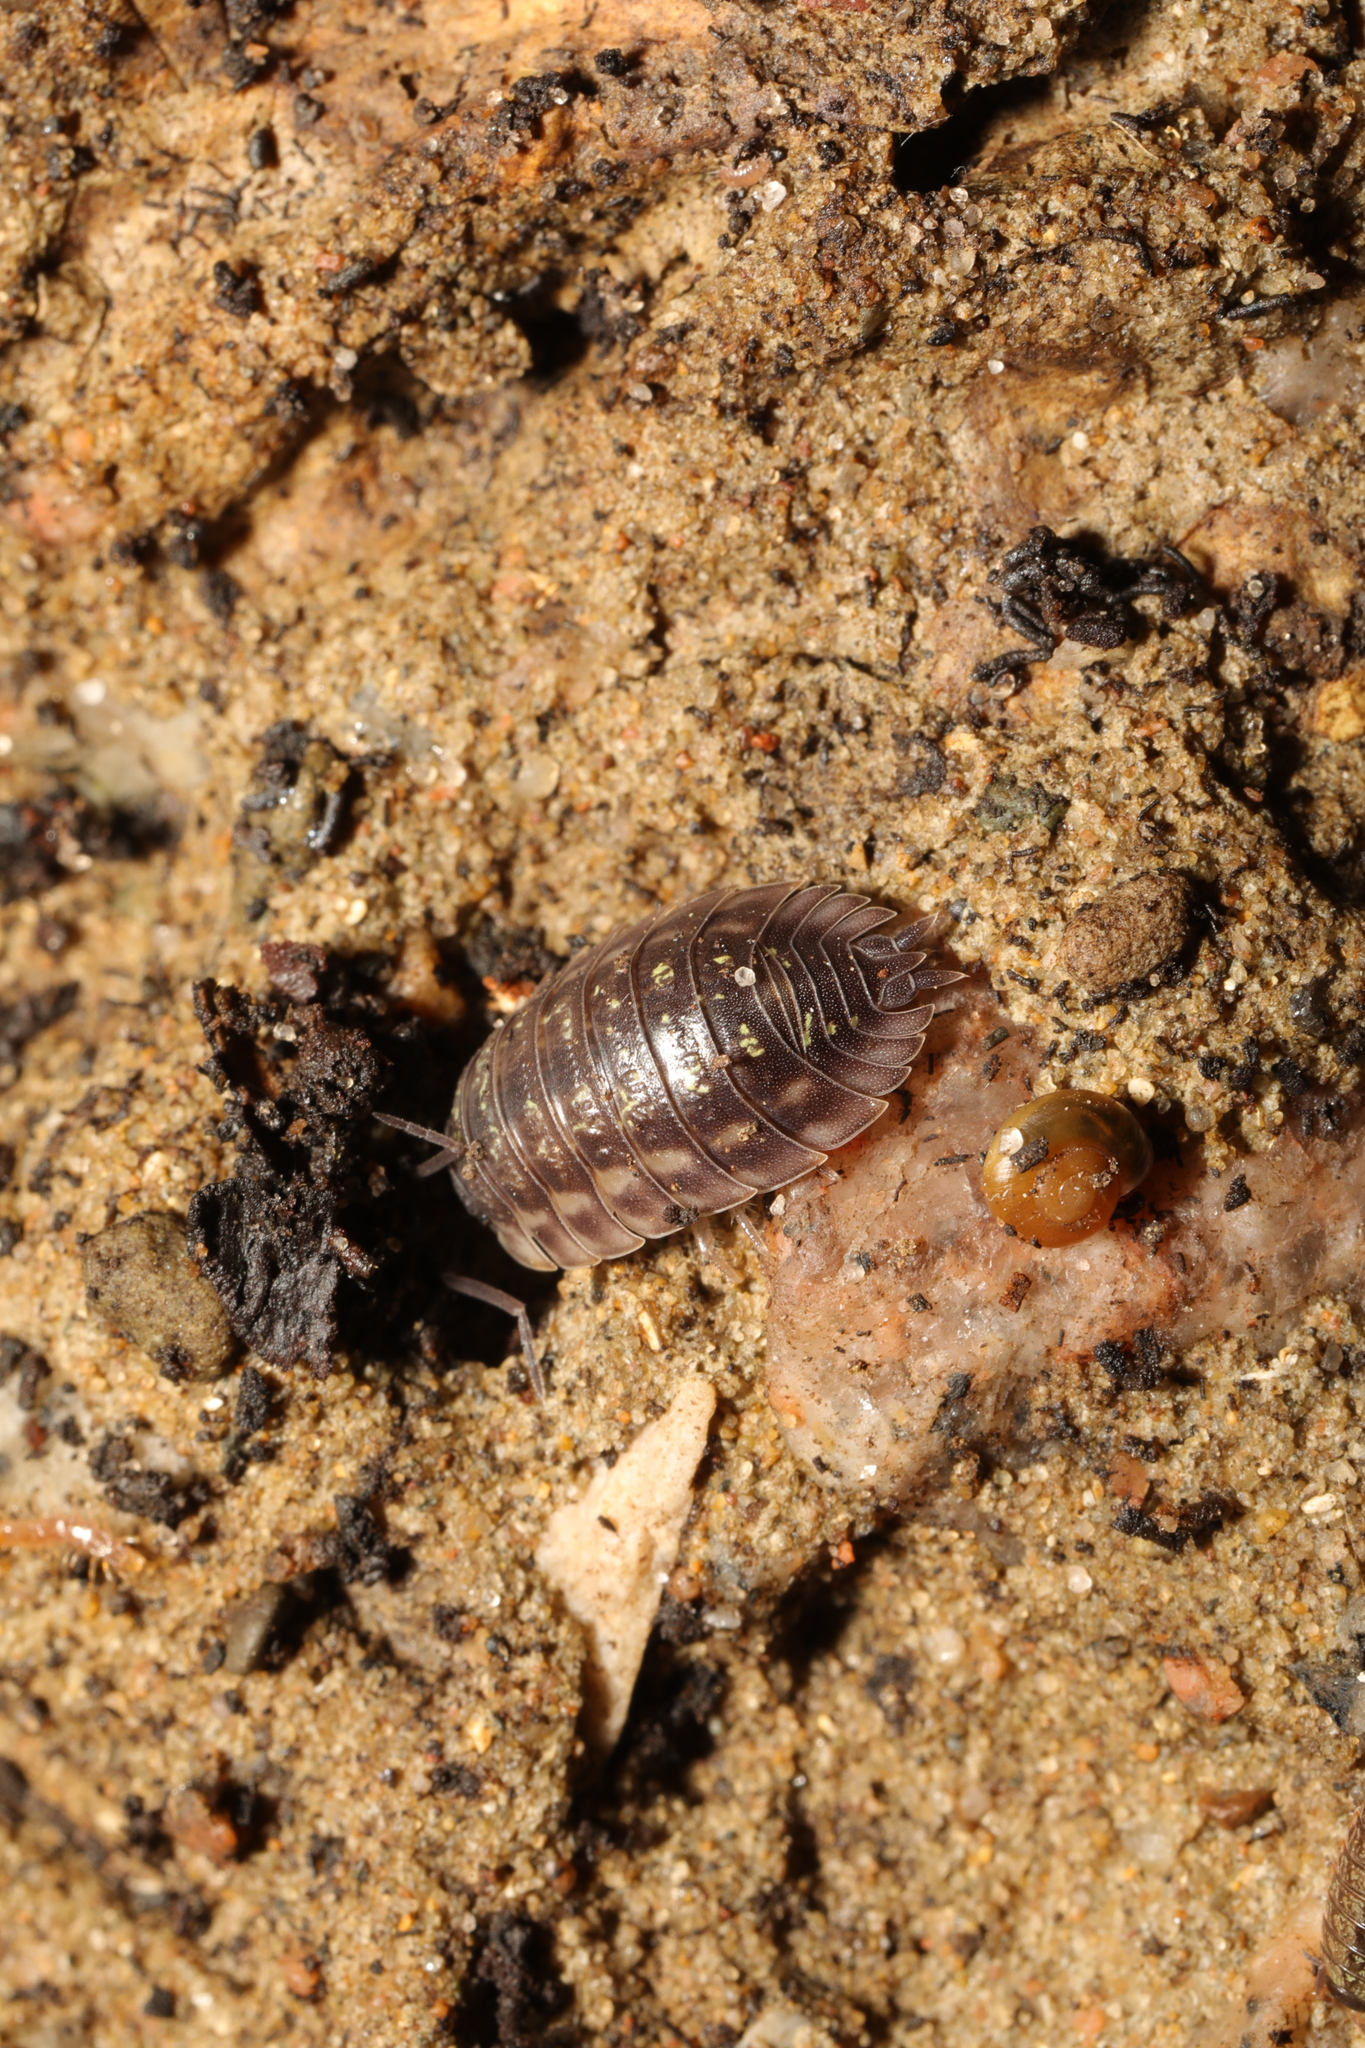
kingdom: Animalia
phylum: Arthropoda
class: Malacostraca
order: Isopoda
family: Oniscidae
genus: Oniscus
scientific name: Oniscus asellus
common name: Common shiny woodlouse
